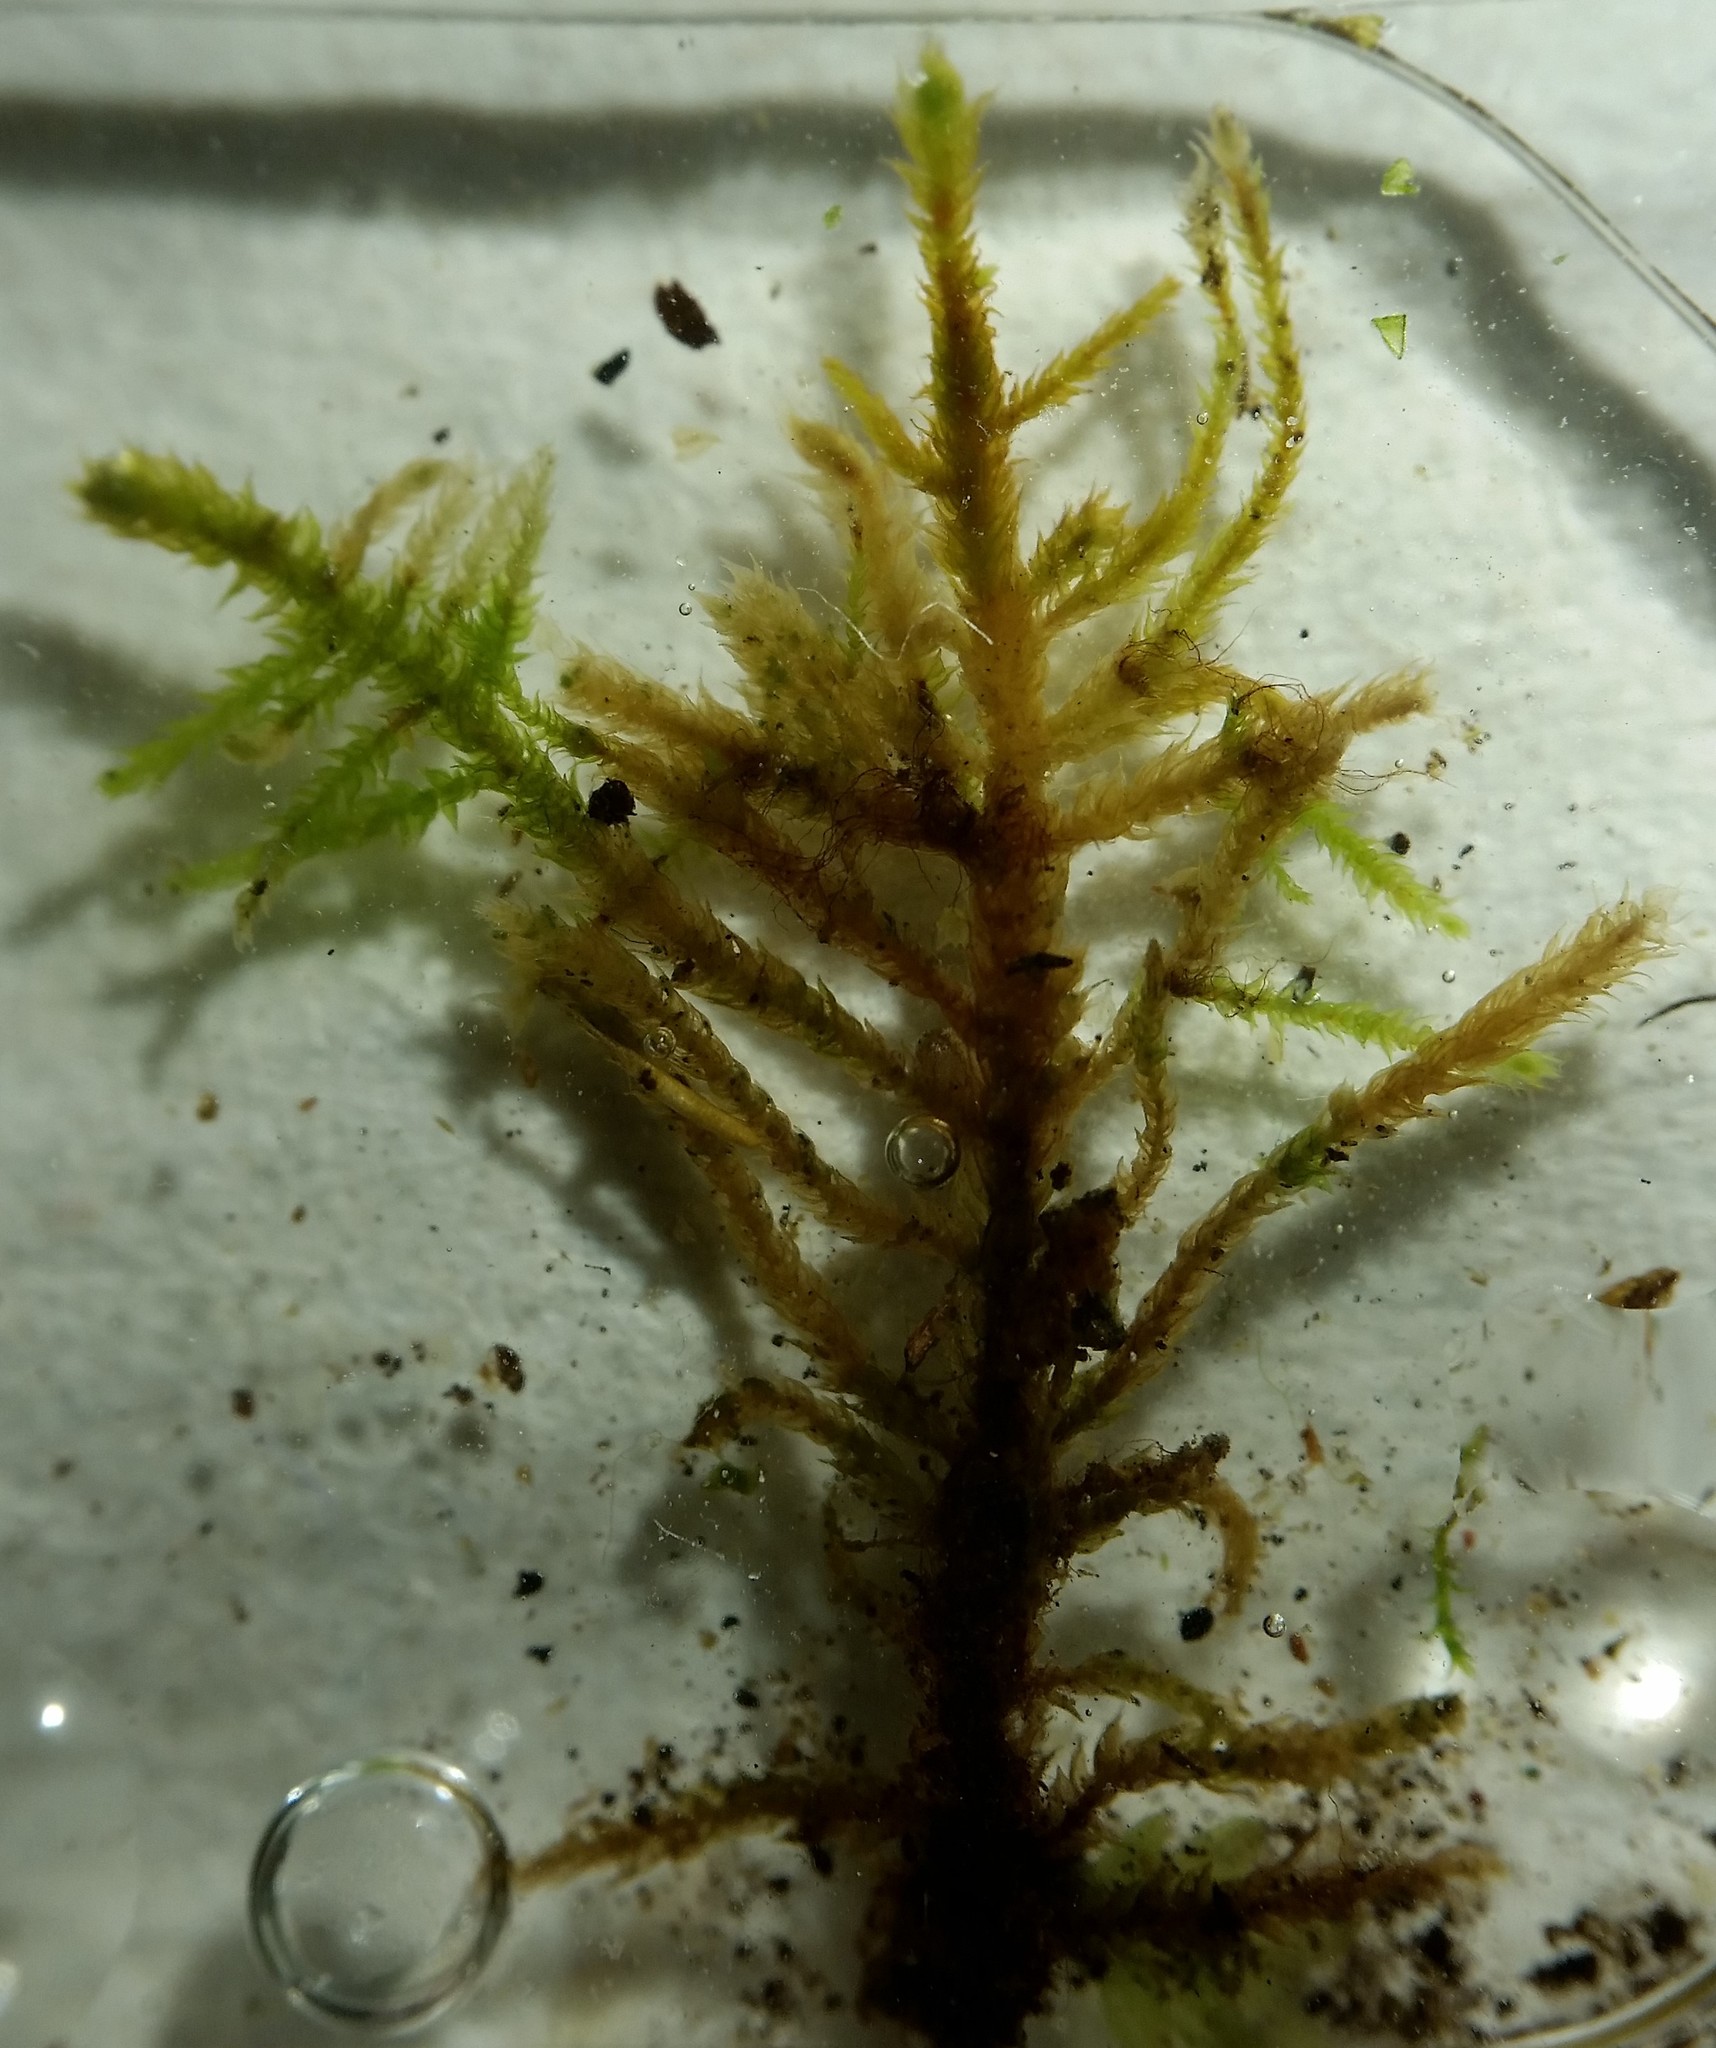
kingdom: Plantae
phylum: Bryophyta
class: Bryopsida
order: Hypnales
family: Leskeaceae
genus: Haplocladium
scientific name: Haplocladium microphyllum
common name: Tiny-leaved haplocladium
